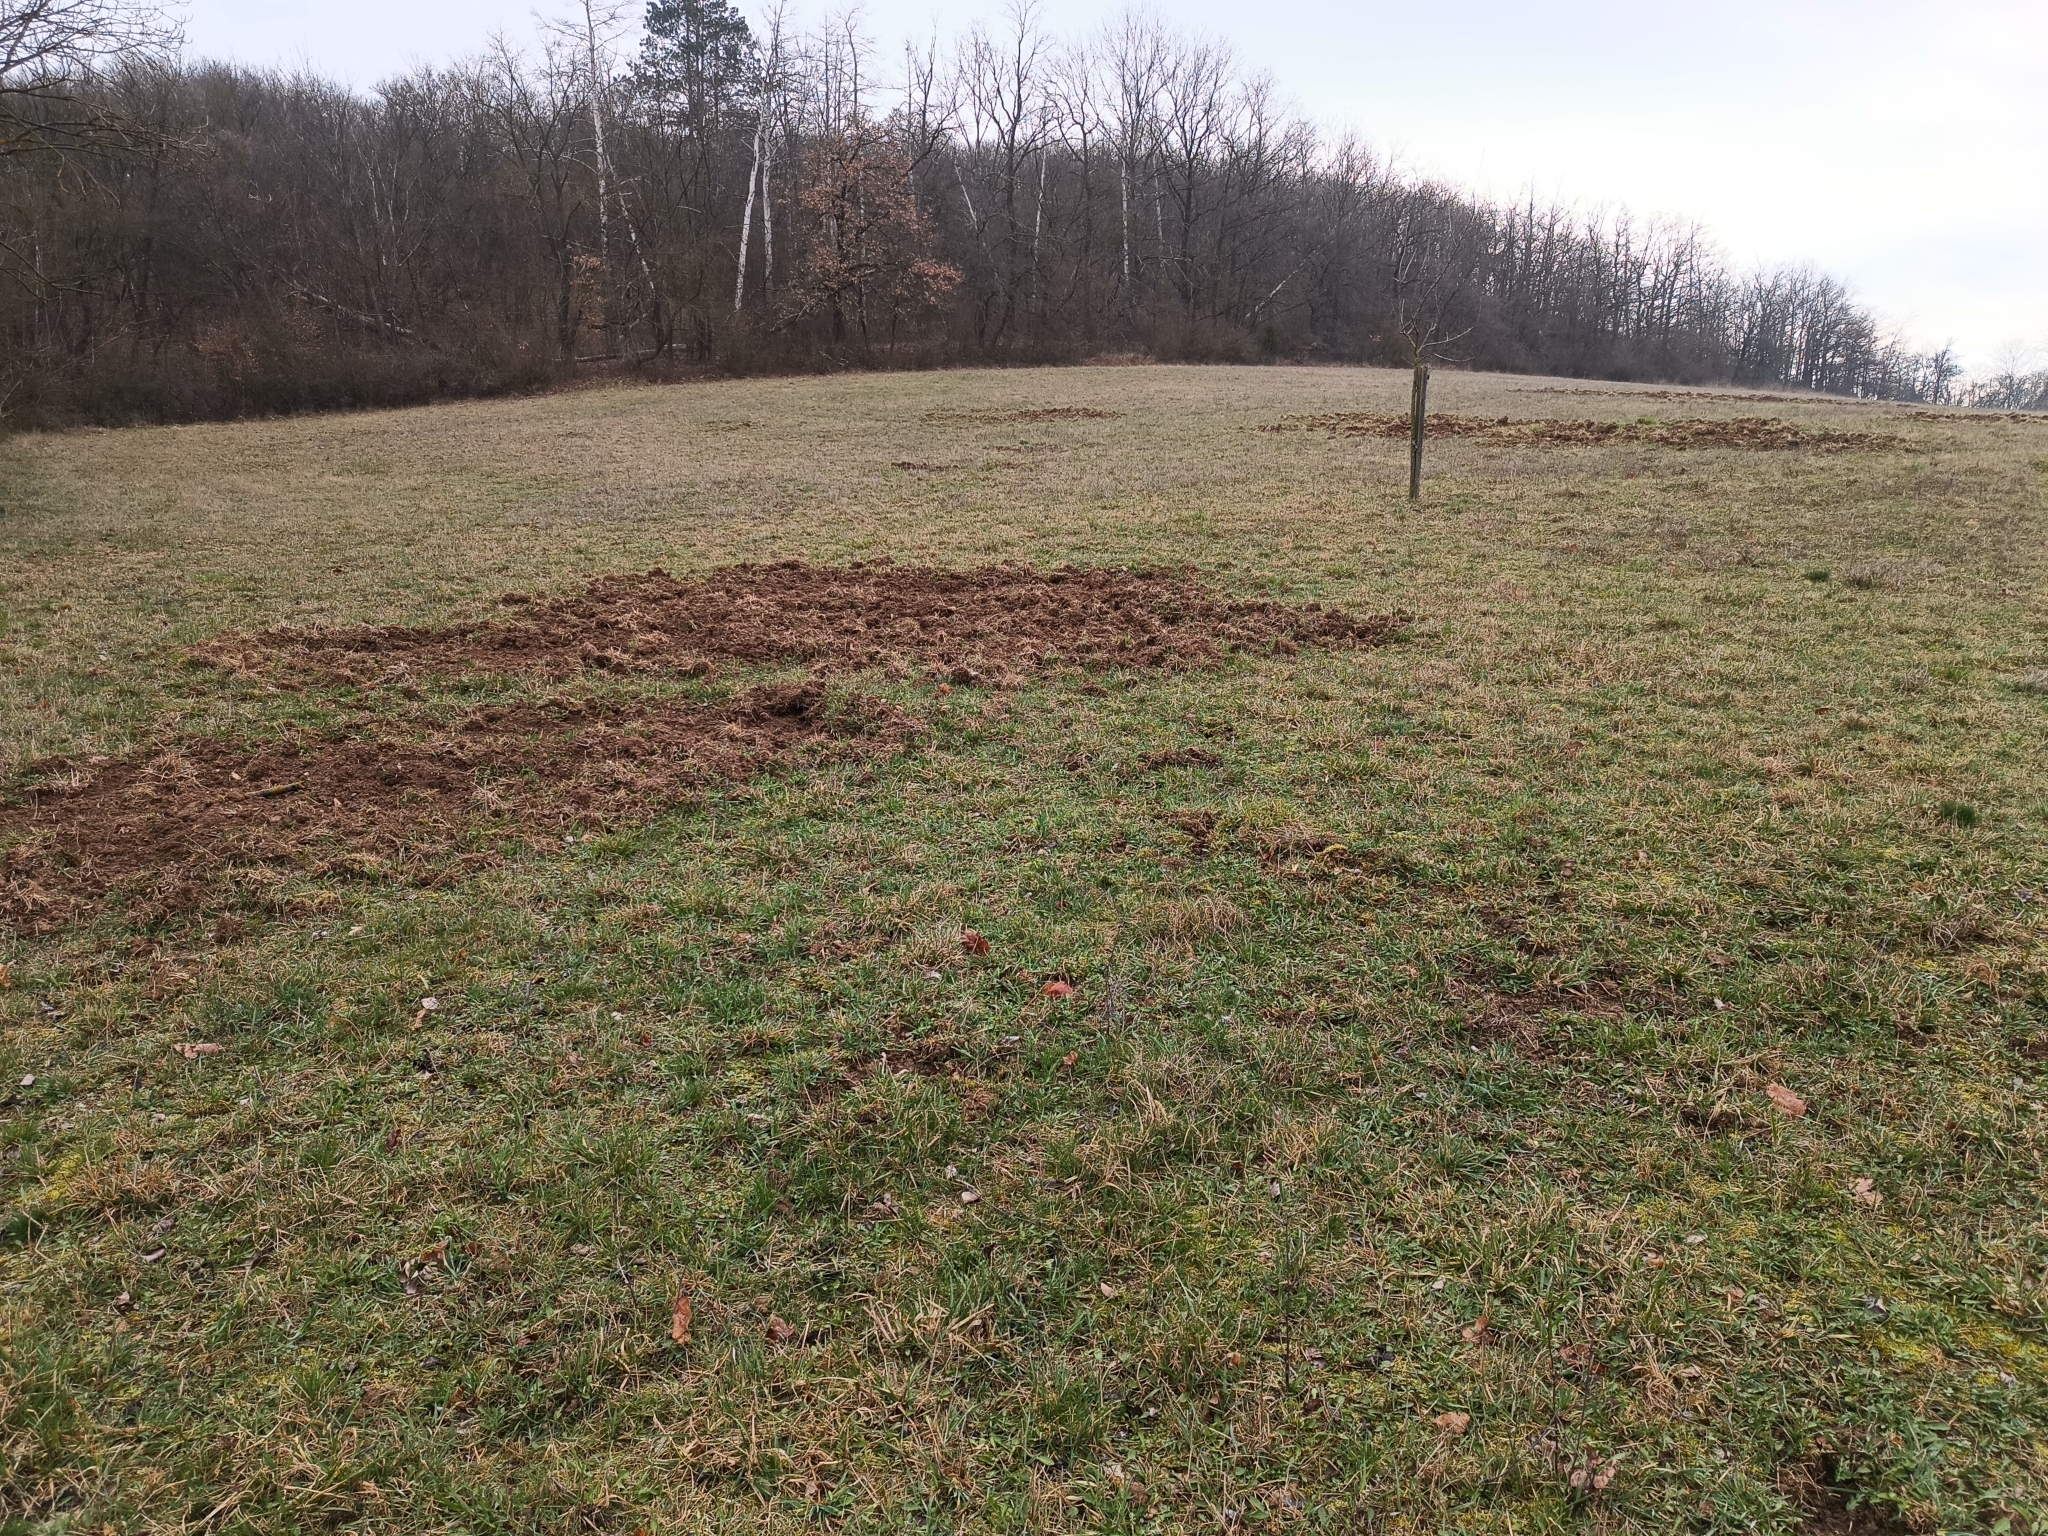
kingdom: Animalia
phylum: Chordata
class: Mammalia
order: Artiodactyla
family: Suidae
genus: Sus
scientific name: Sus scrofa
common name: Wild boar
